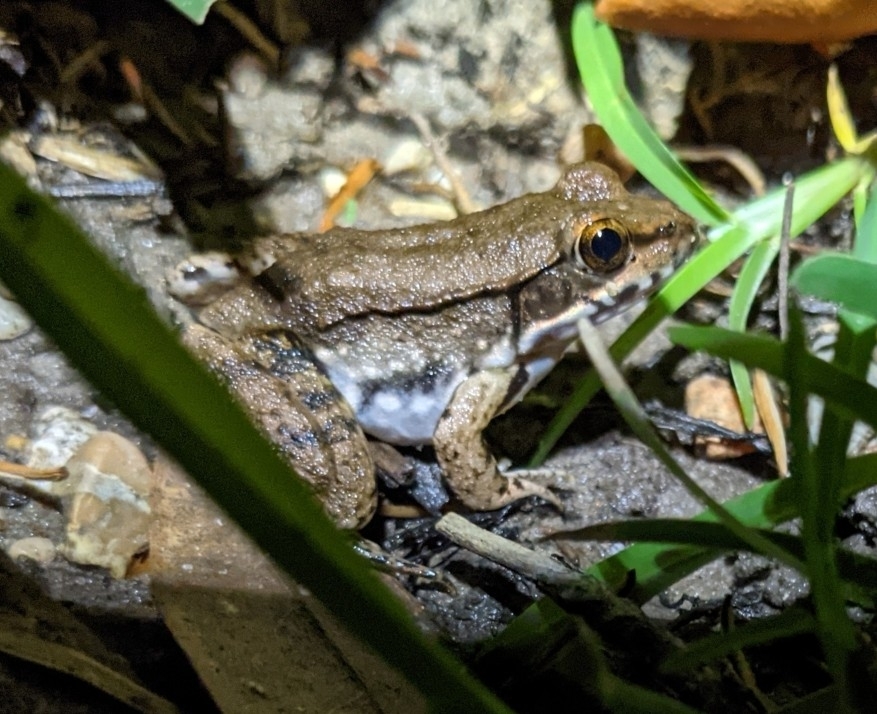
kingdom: Animalia
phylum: Chordata
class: Amphibia
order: Anura
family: Ranidae
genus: Lithobates
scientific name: Lithobates clamitans
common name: Green frog
